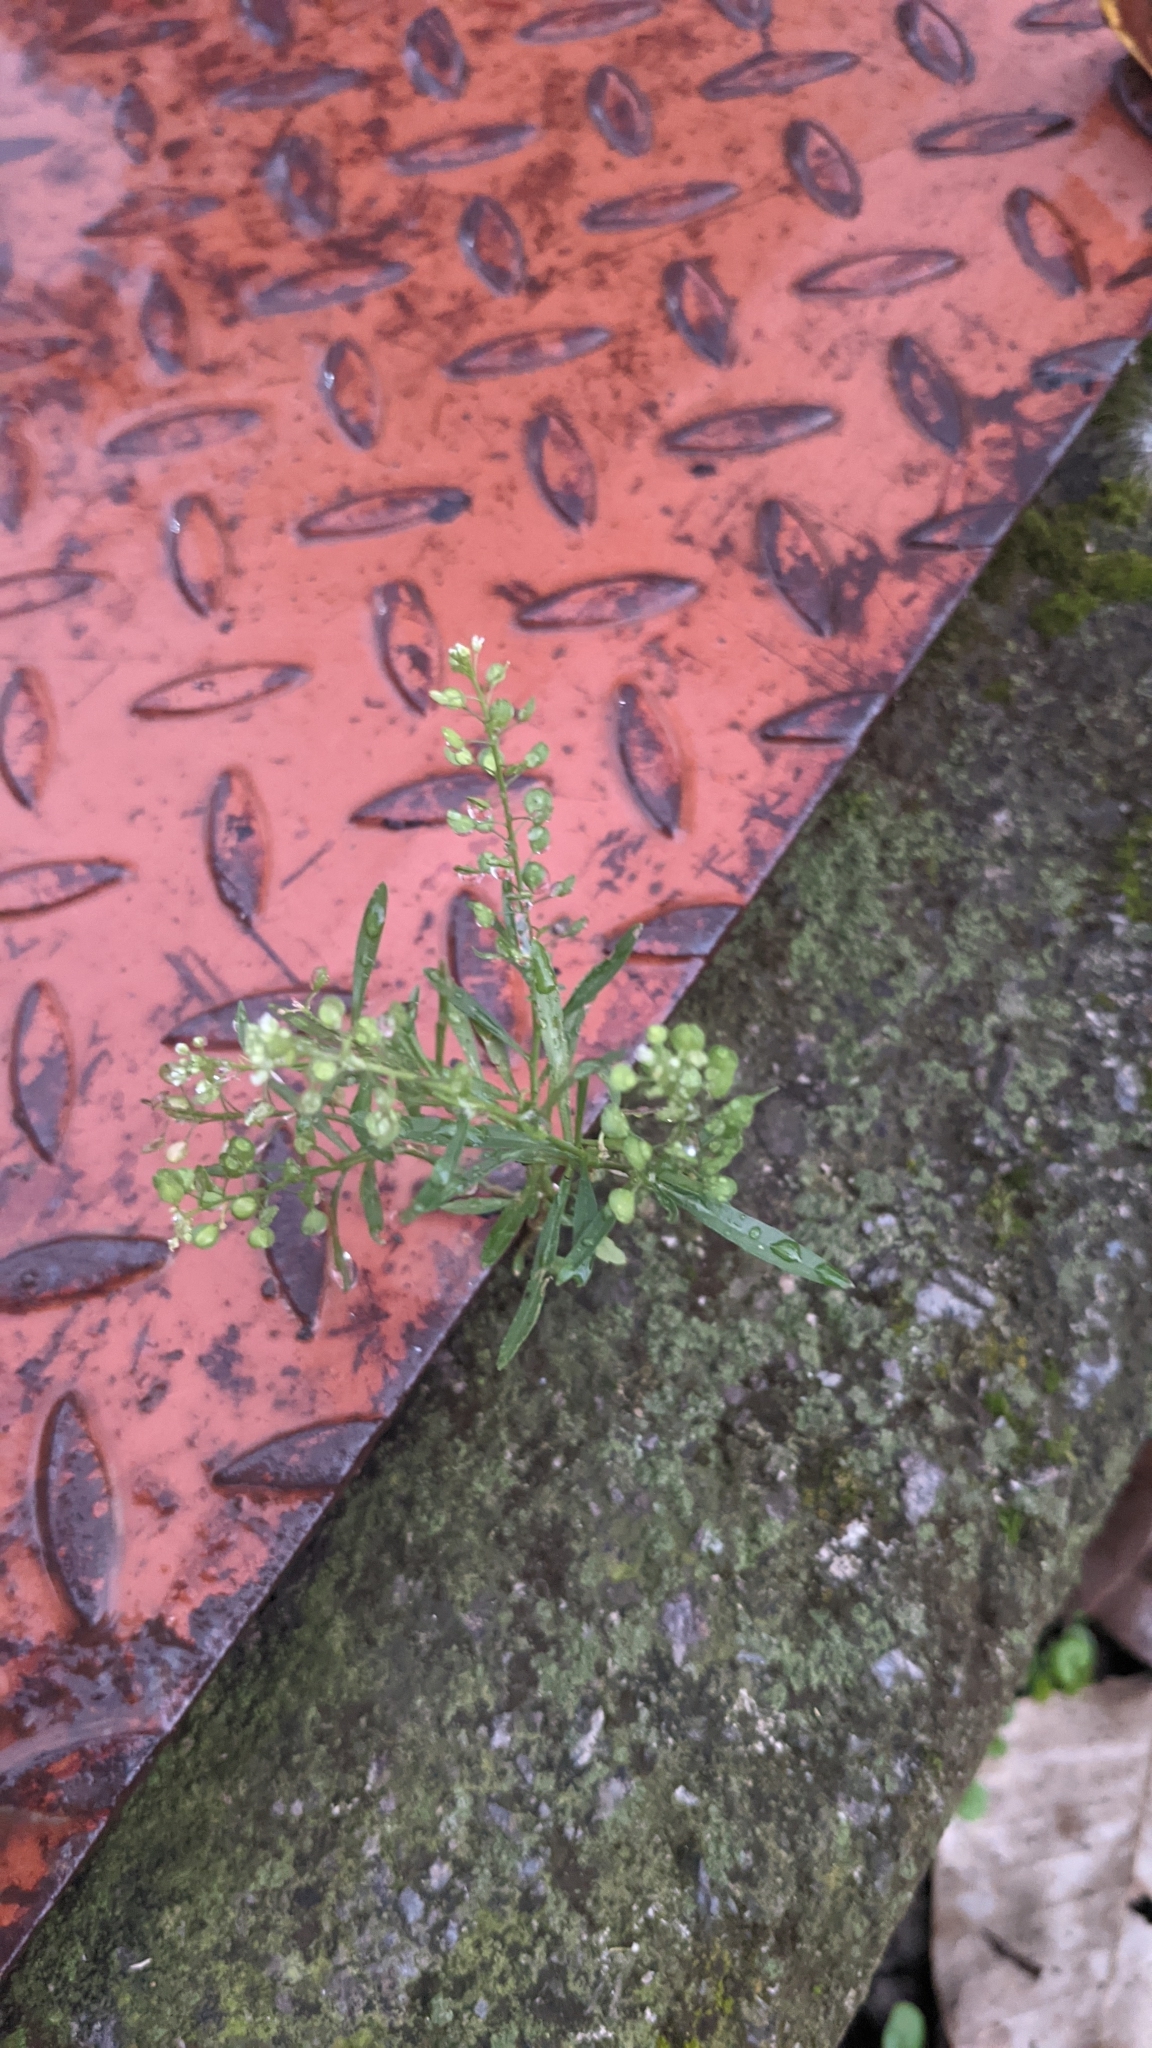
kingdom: Plantae
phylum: Tracheophyta
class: Magnoliopsida
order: Brassicales
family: Brassicaceae
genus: Lepidium
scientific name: Lepidium virginicum
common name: Least pepperwort
